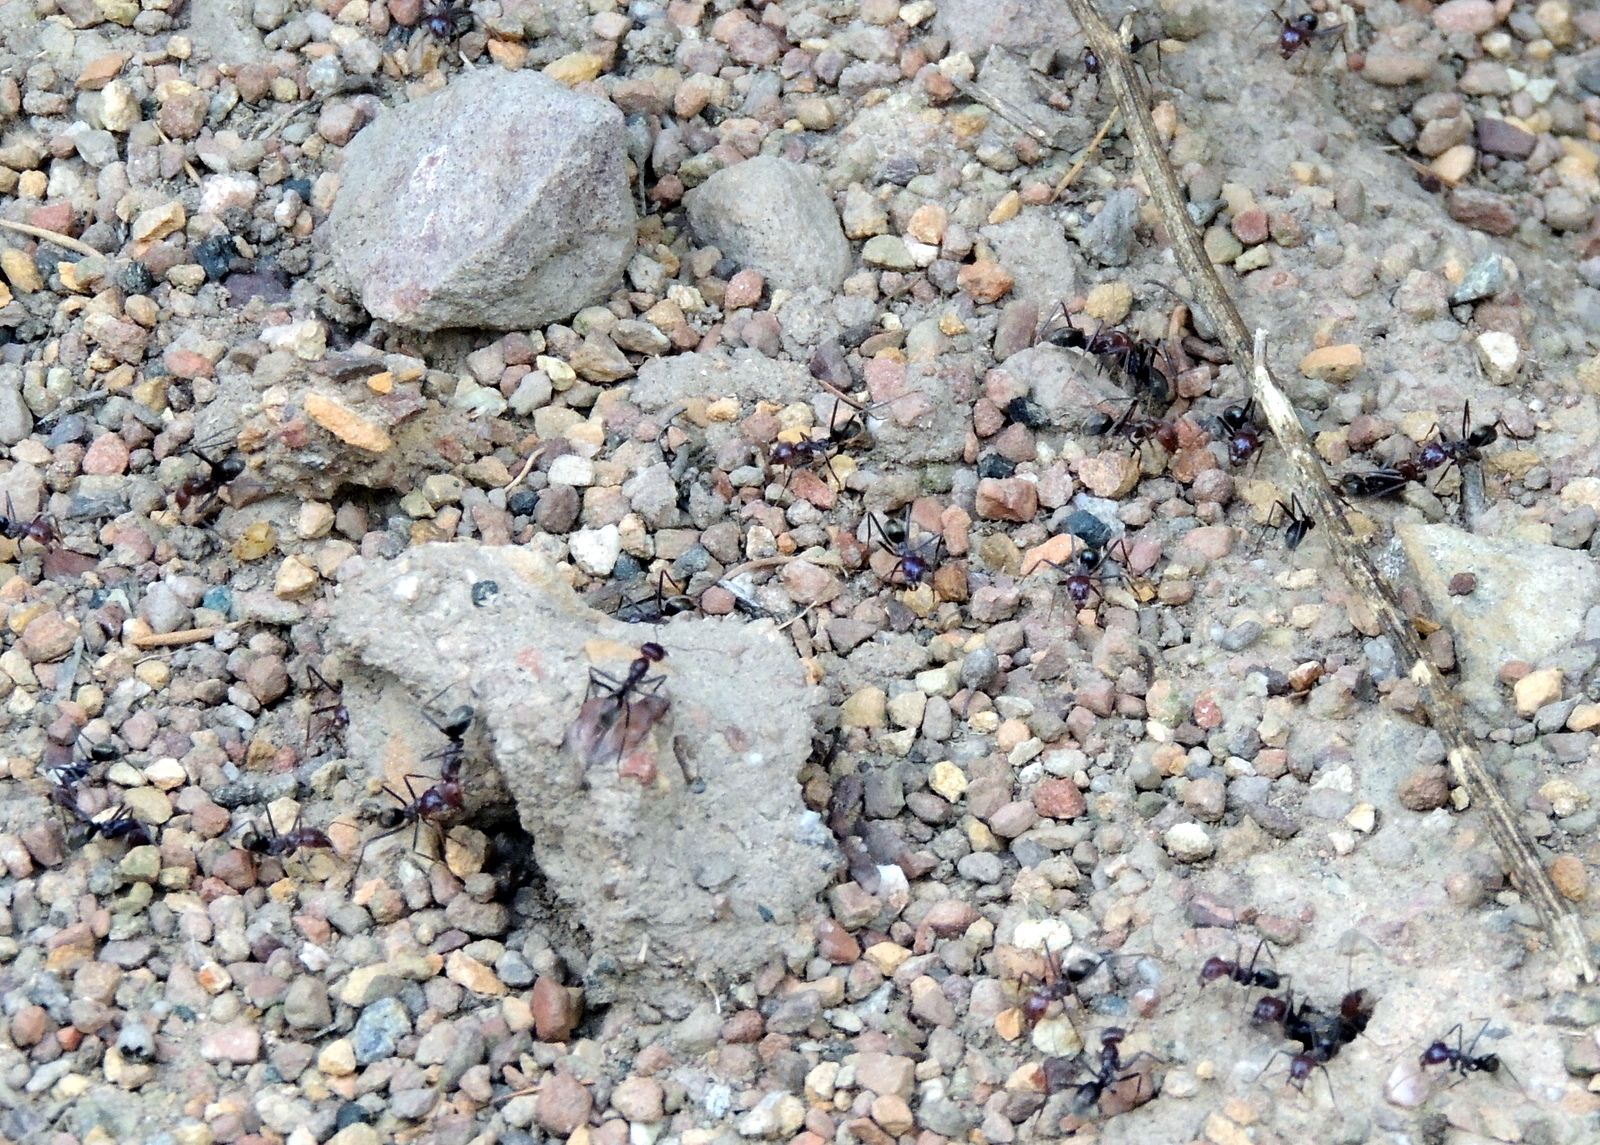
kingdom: Animalia
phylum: Arthropoda
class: Insecta
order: Hymenoptera
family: Formicidae
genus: Iridomyrmex
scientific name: Iridomyrmex purpureus
